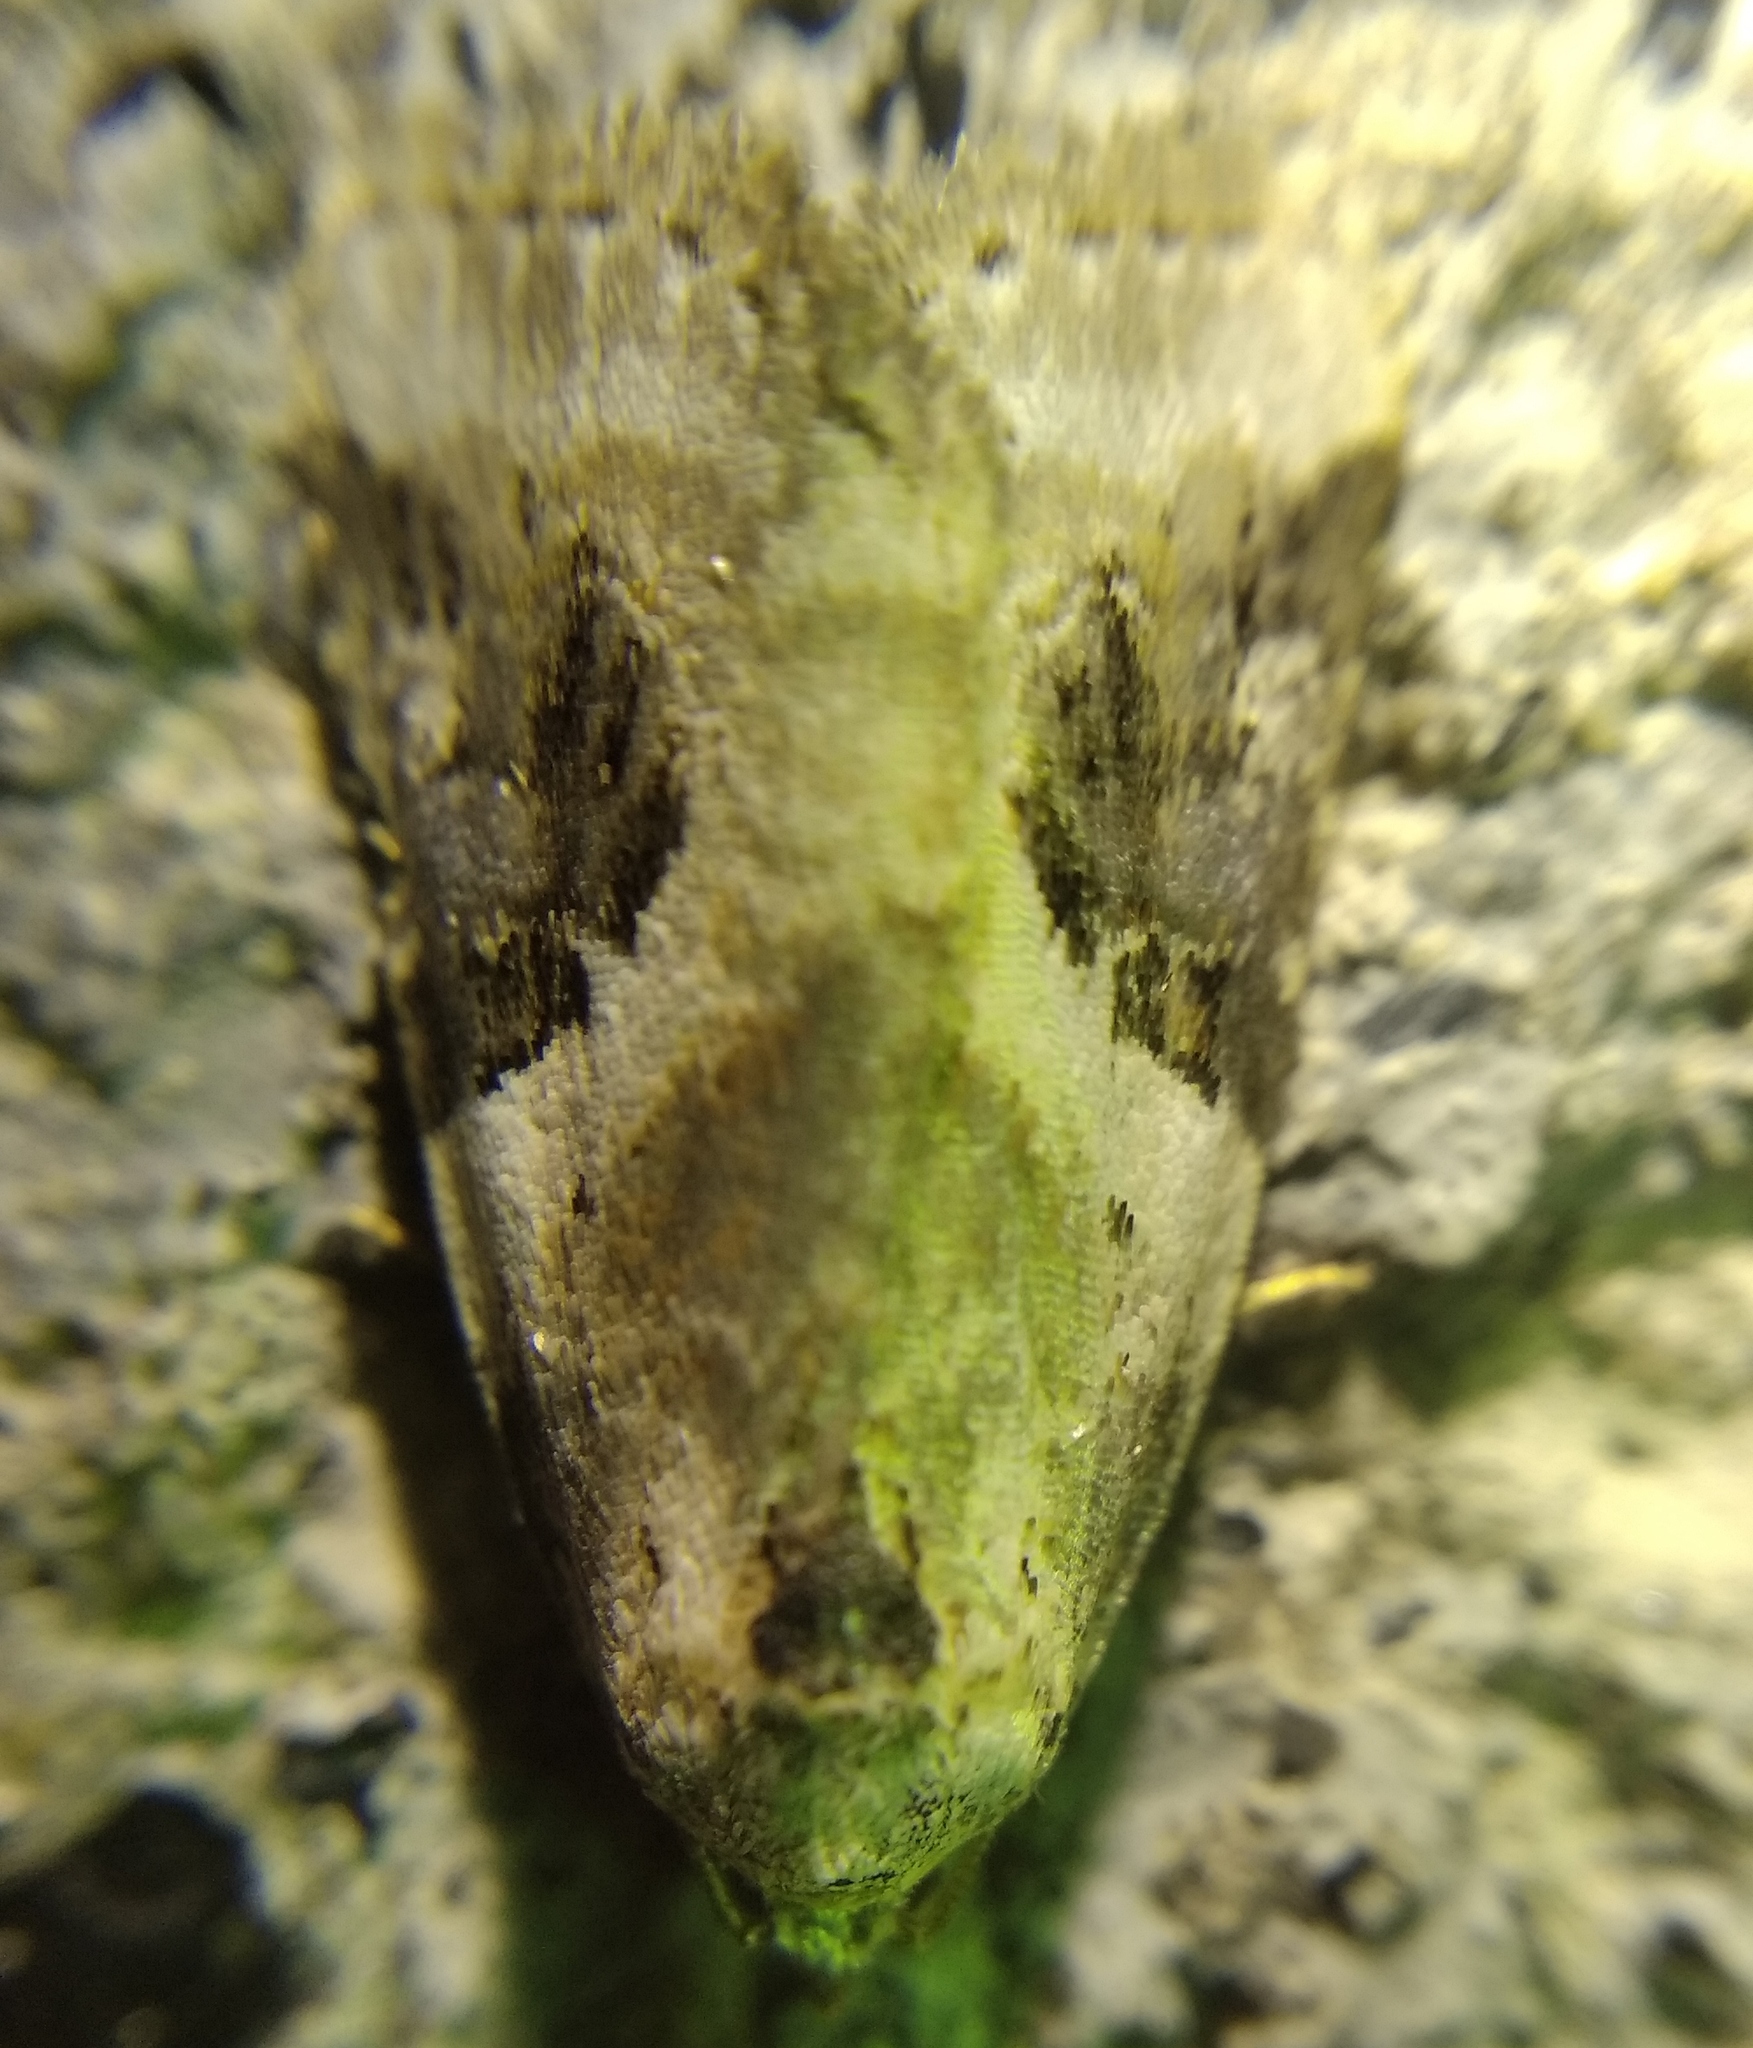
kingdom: Animalia
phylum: Arthropoda
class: Insecta
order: Lepidoptera
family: Noctuidae
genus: Pseudeustrotia
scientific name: Pseudeustrotia candidula
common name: Shining marbled
